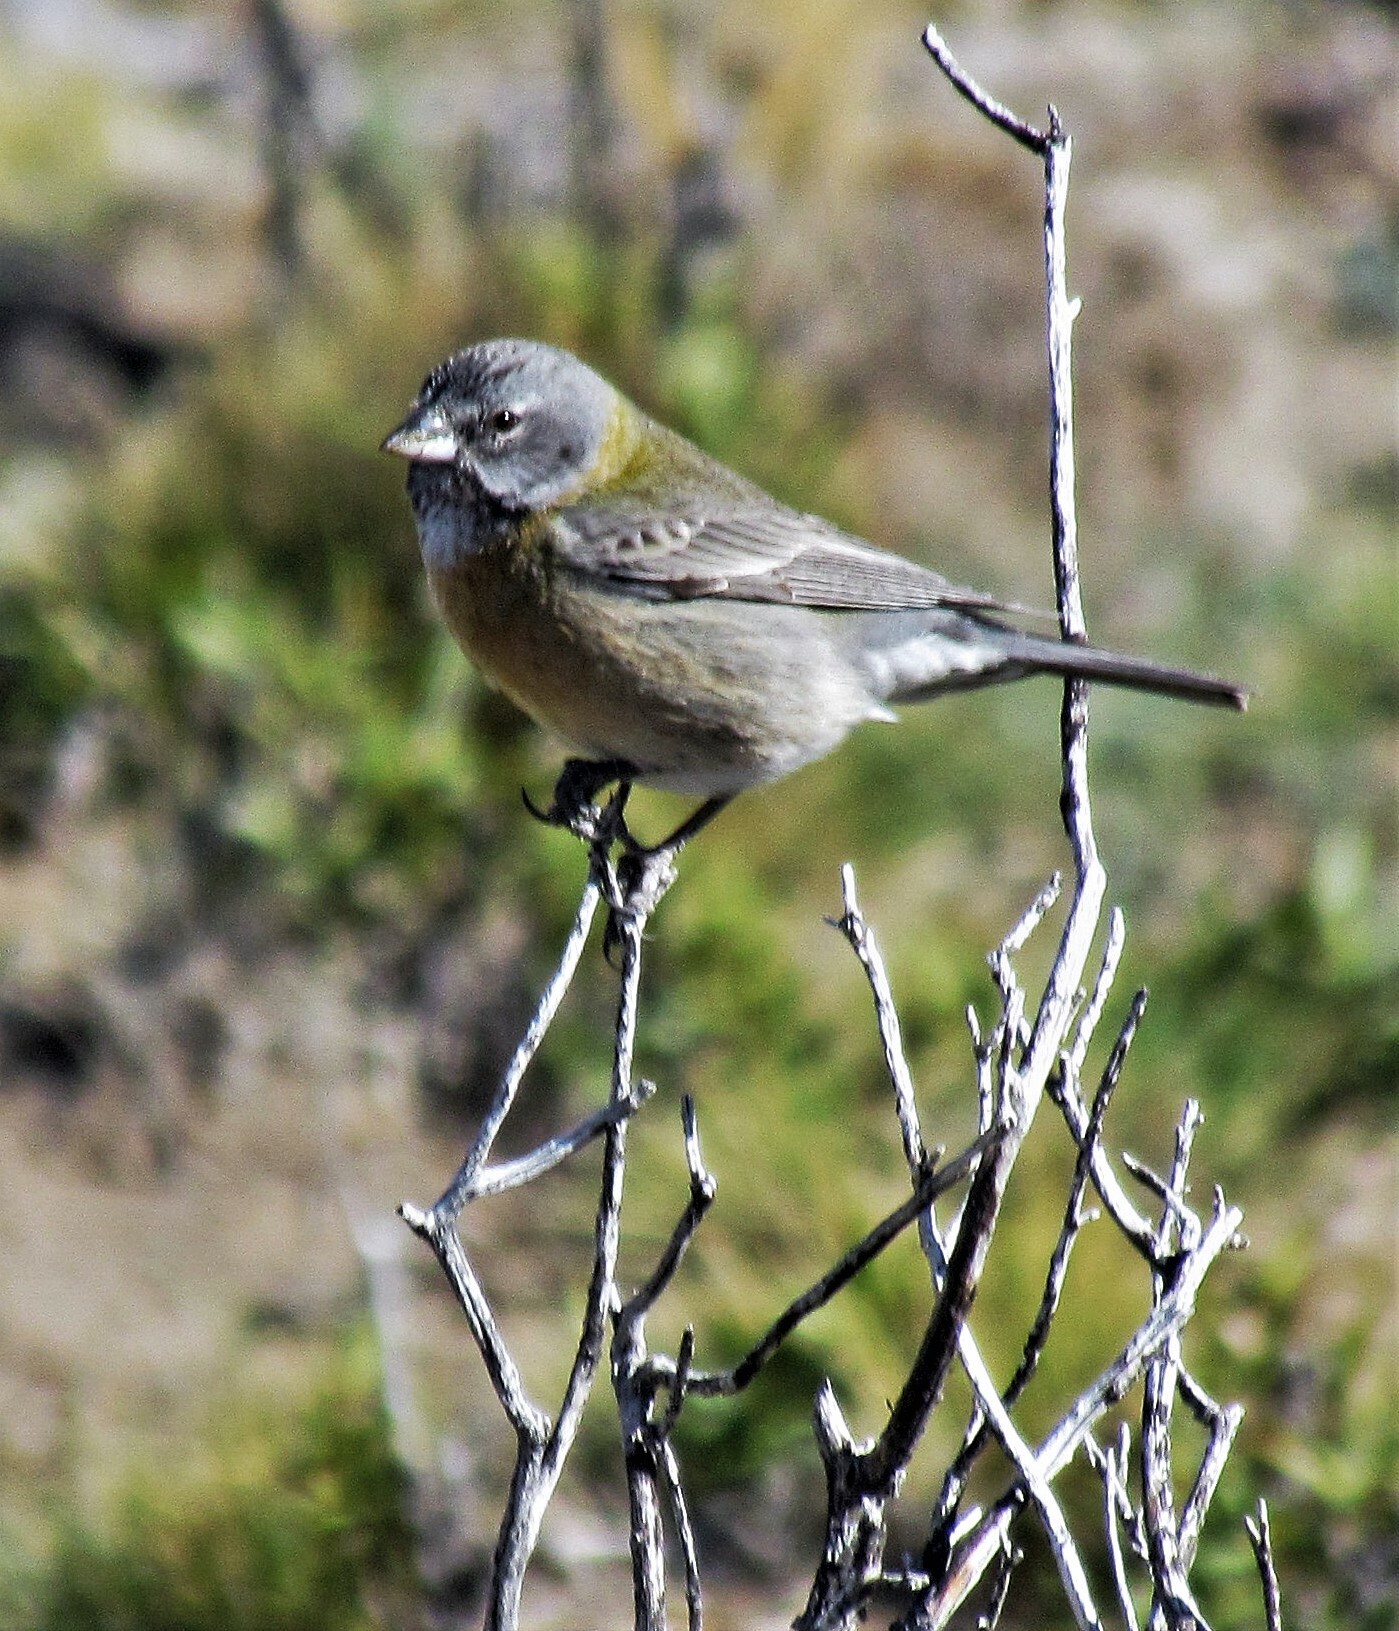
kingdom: Animalia
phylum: Chordata
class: Aves
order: Passeriformes
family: Thraupidae
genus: Phrygilus
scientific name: Phrygilus gayi
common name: Grey-hooded sierra finch
